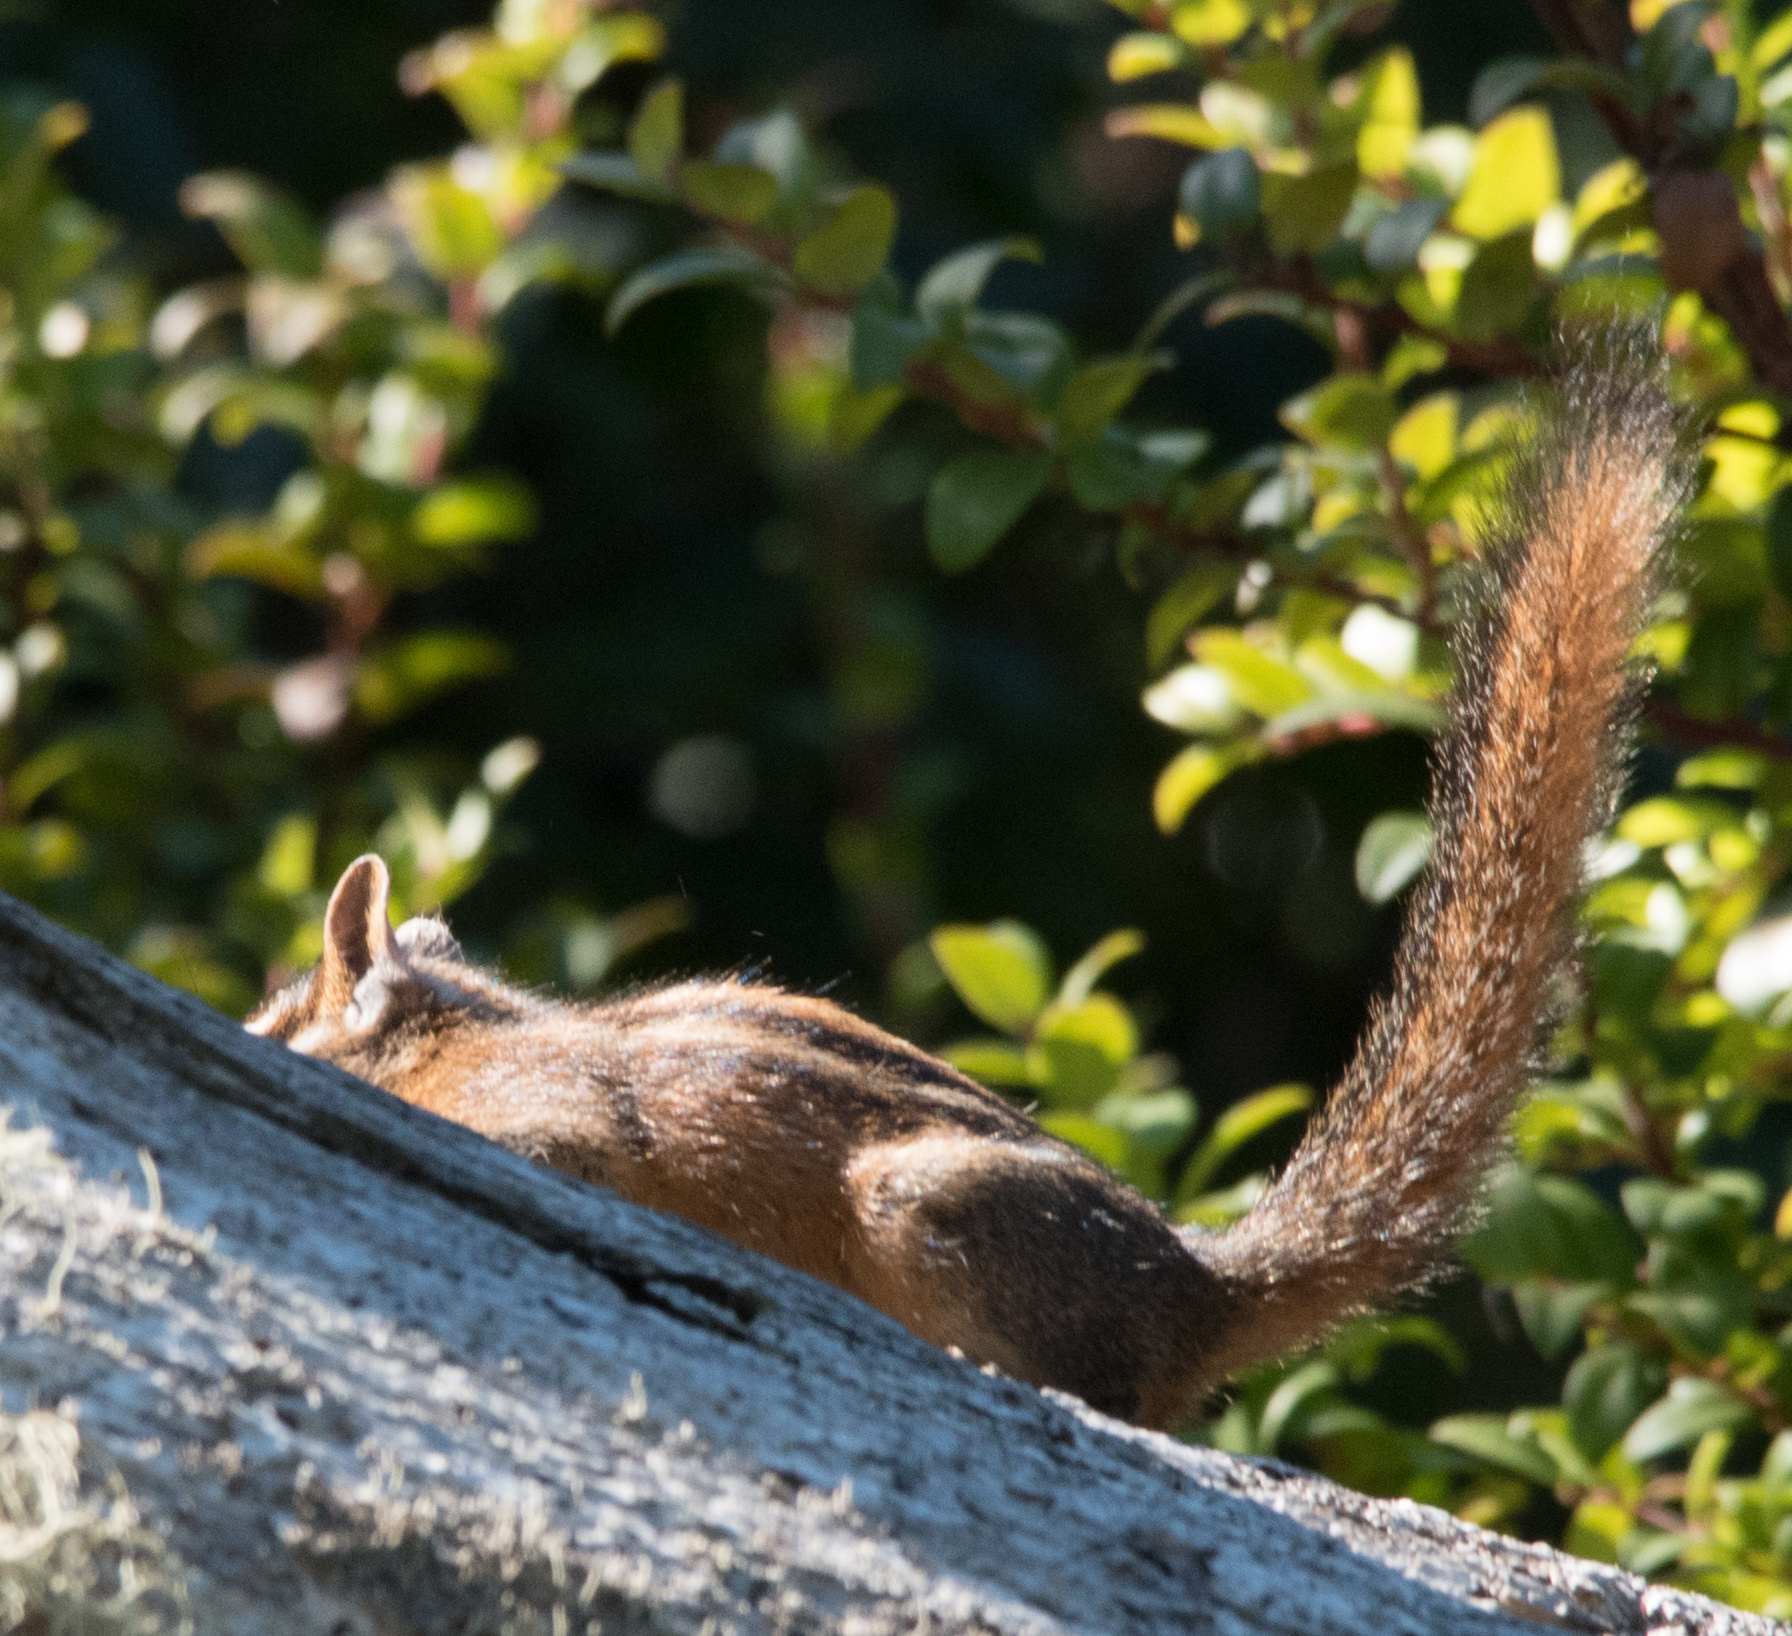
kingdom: Animalia
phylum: Chordata
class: Mammalia
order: Rodentia
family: Sciuridae
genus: Tamias
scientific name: Tamias sonomae
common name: Sonoma chipmunk
